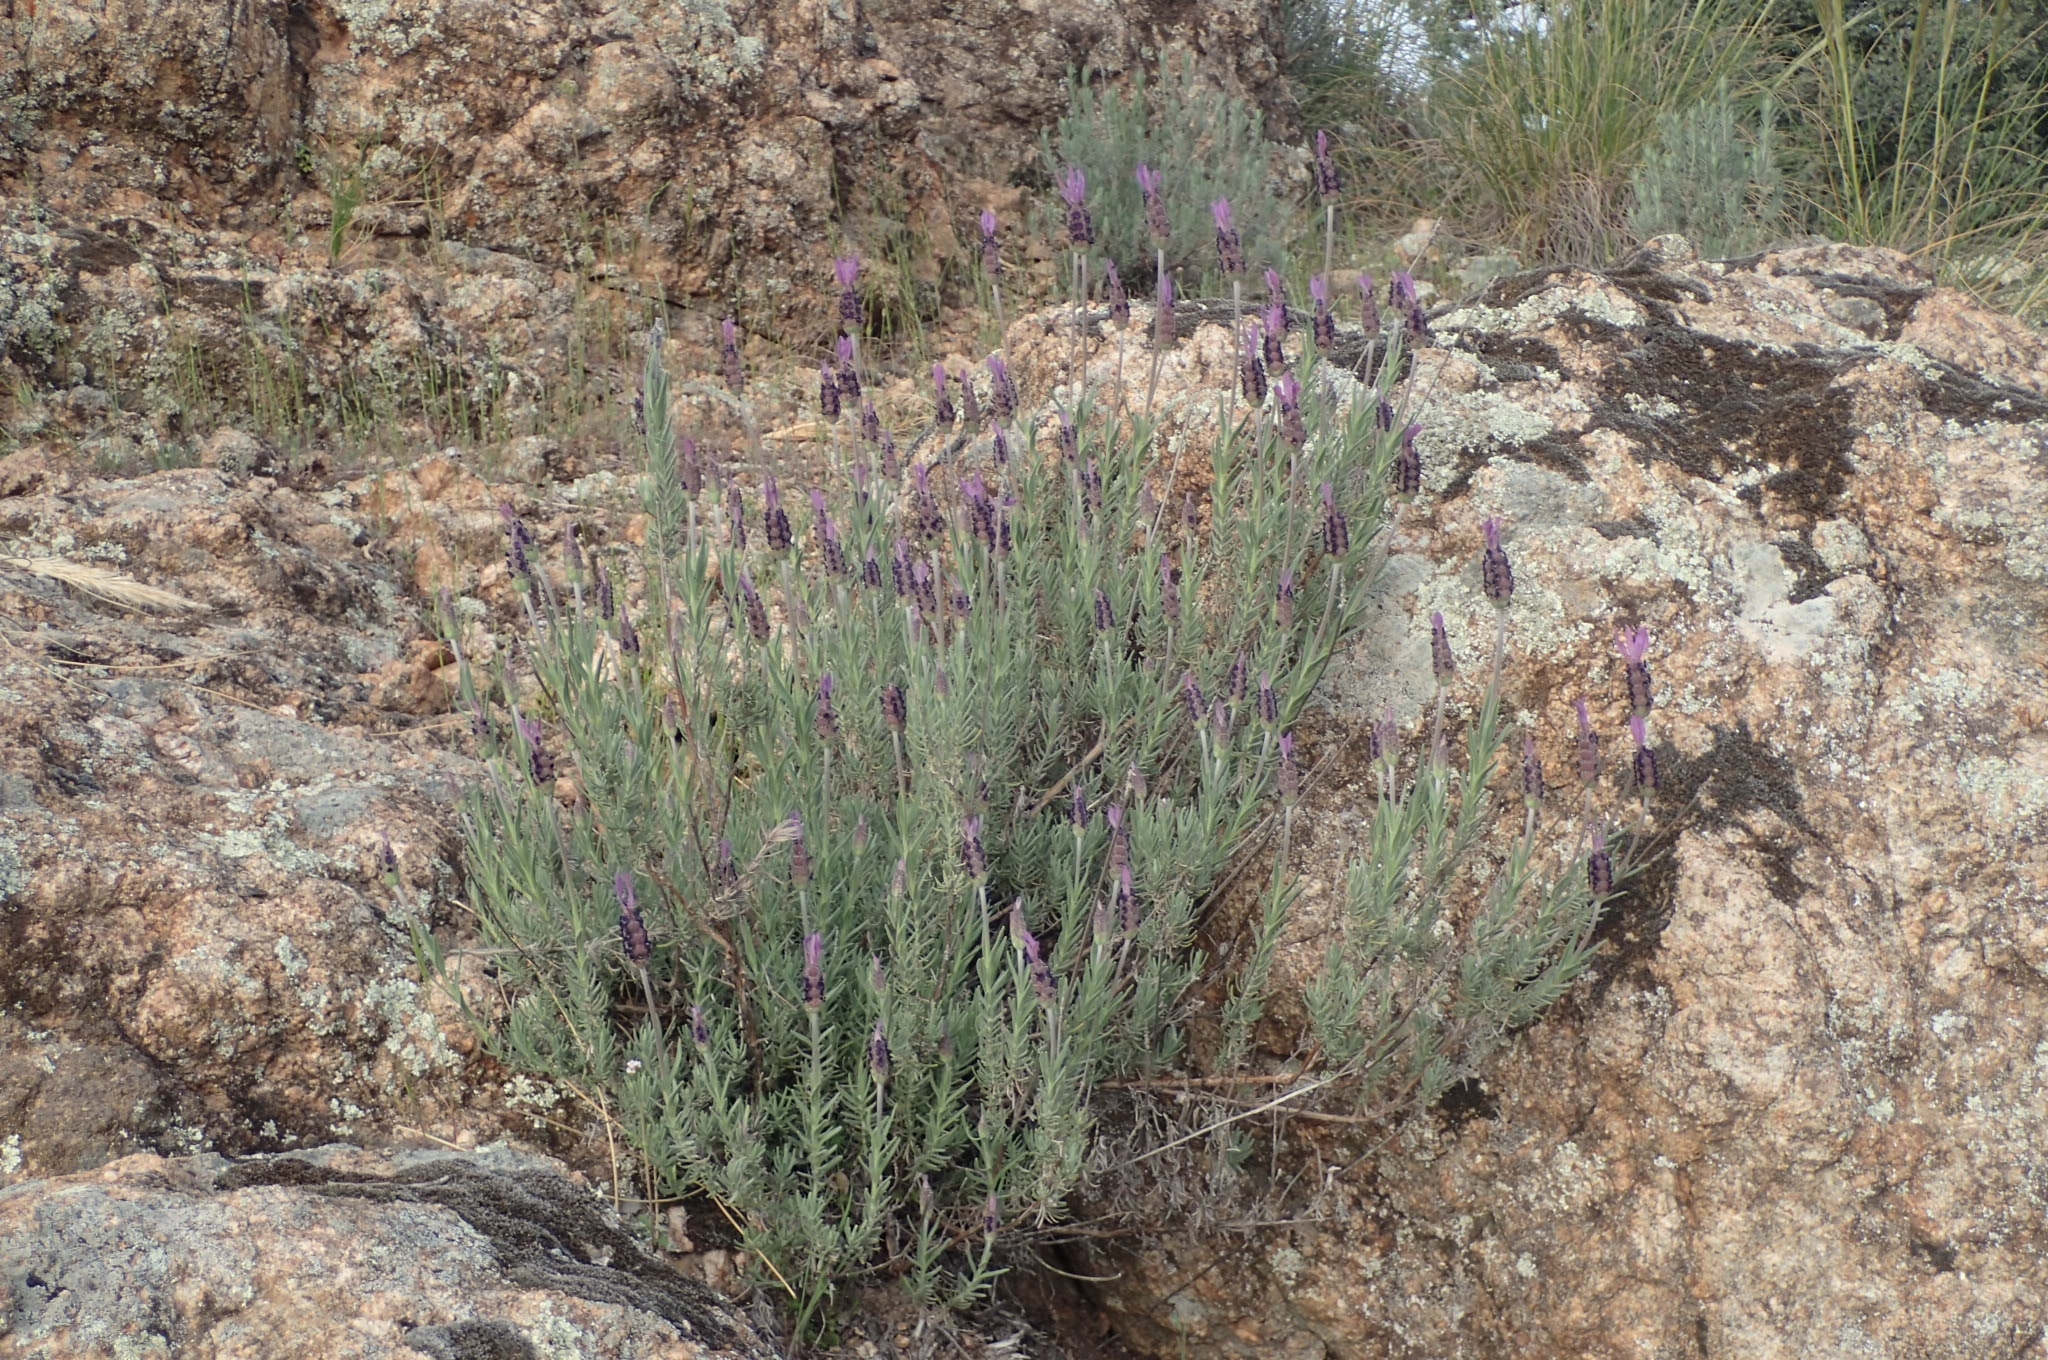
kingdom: Plantae
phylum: Tracheophyta
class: Magnoliopsida
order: Lamiales
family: Lamiaceae
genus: Lavandula
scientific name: Lavandula pedunculata
